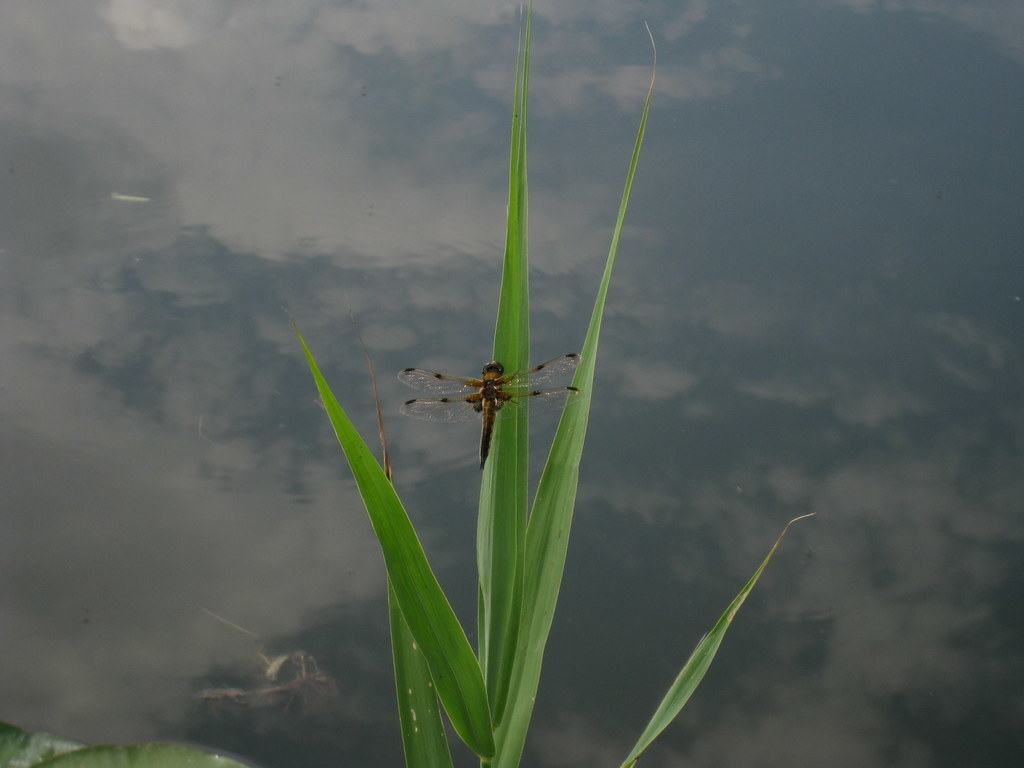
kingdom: Animalia
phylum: Arthropoda
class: Insecta
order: Odonata
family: Libellulidae
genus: Libellula
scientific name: Libellula quadrimaculata
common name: Four-spotted chaser
